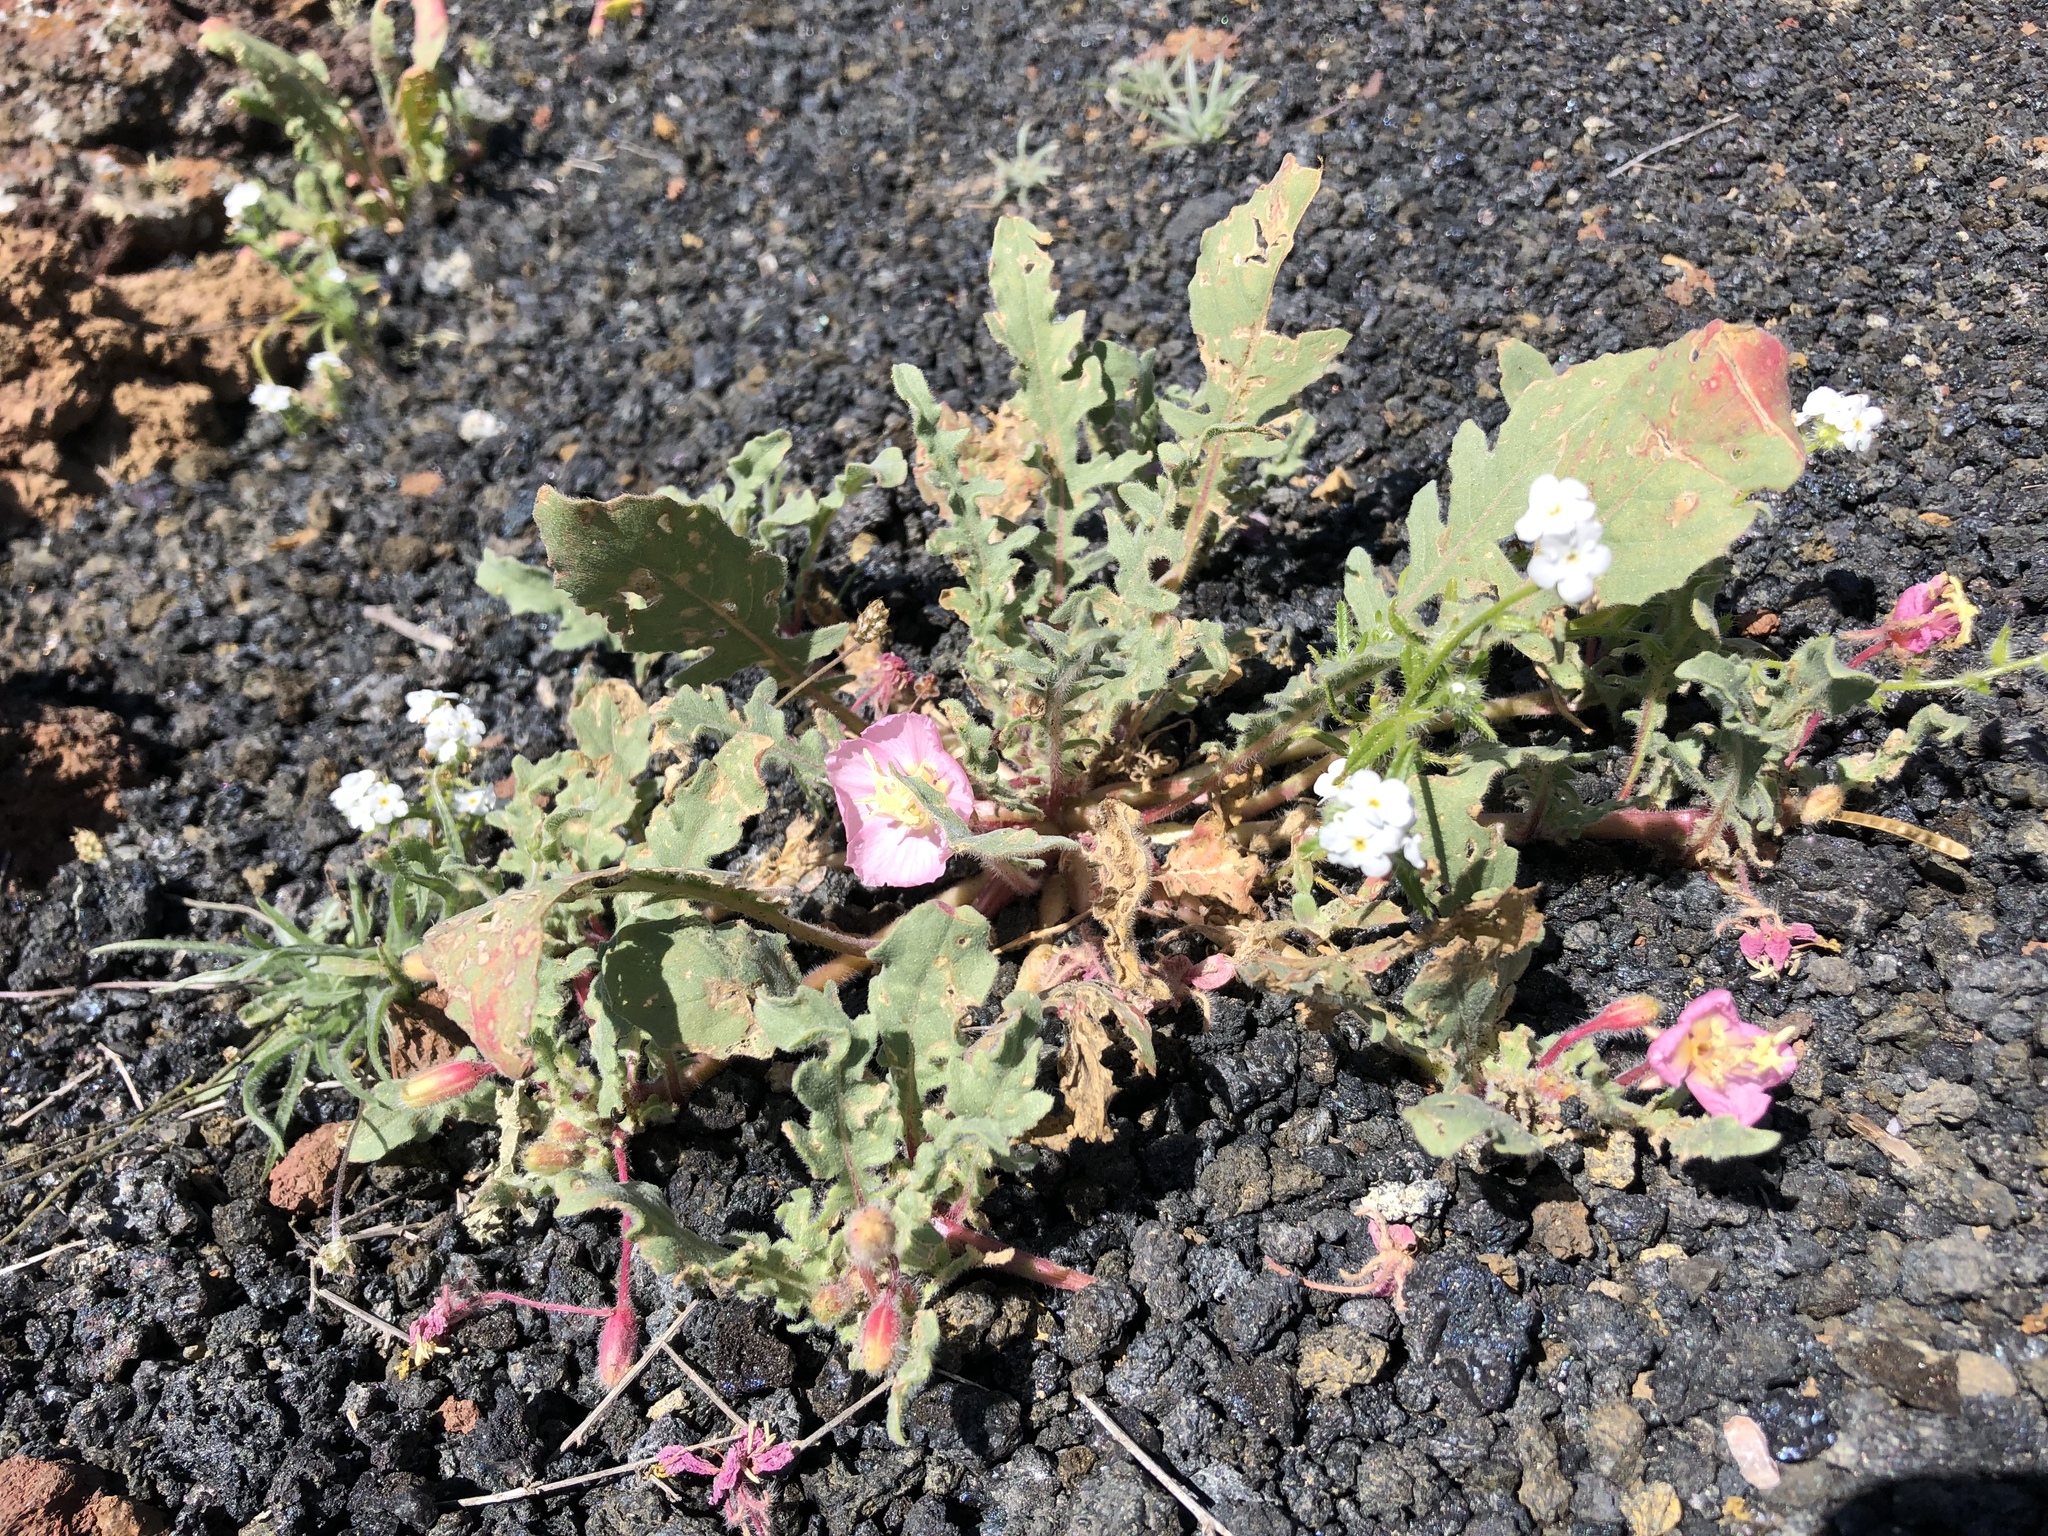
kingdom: Plantae
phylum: Tracheophyta
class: Magnoliopsida
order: Myrtales
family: Onagraceae
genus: Oenothera
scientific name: Oenothera wigginsii
